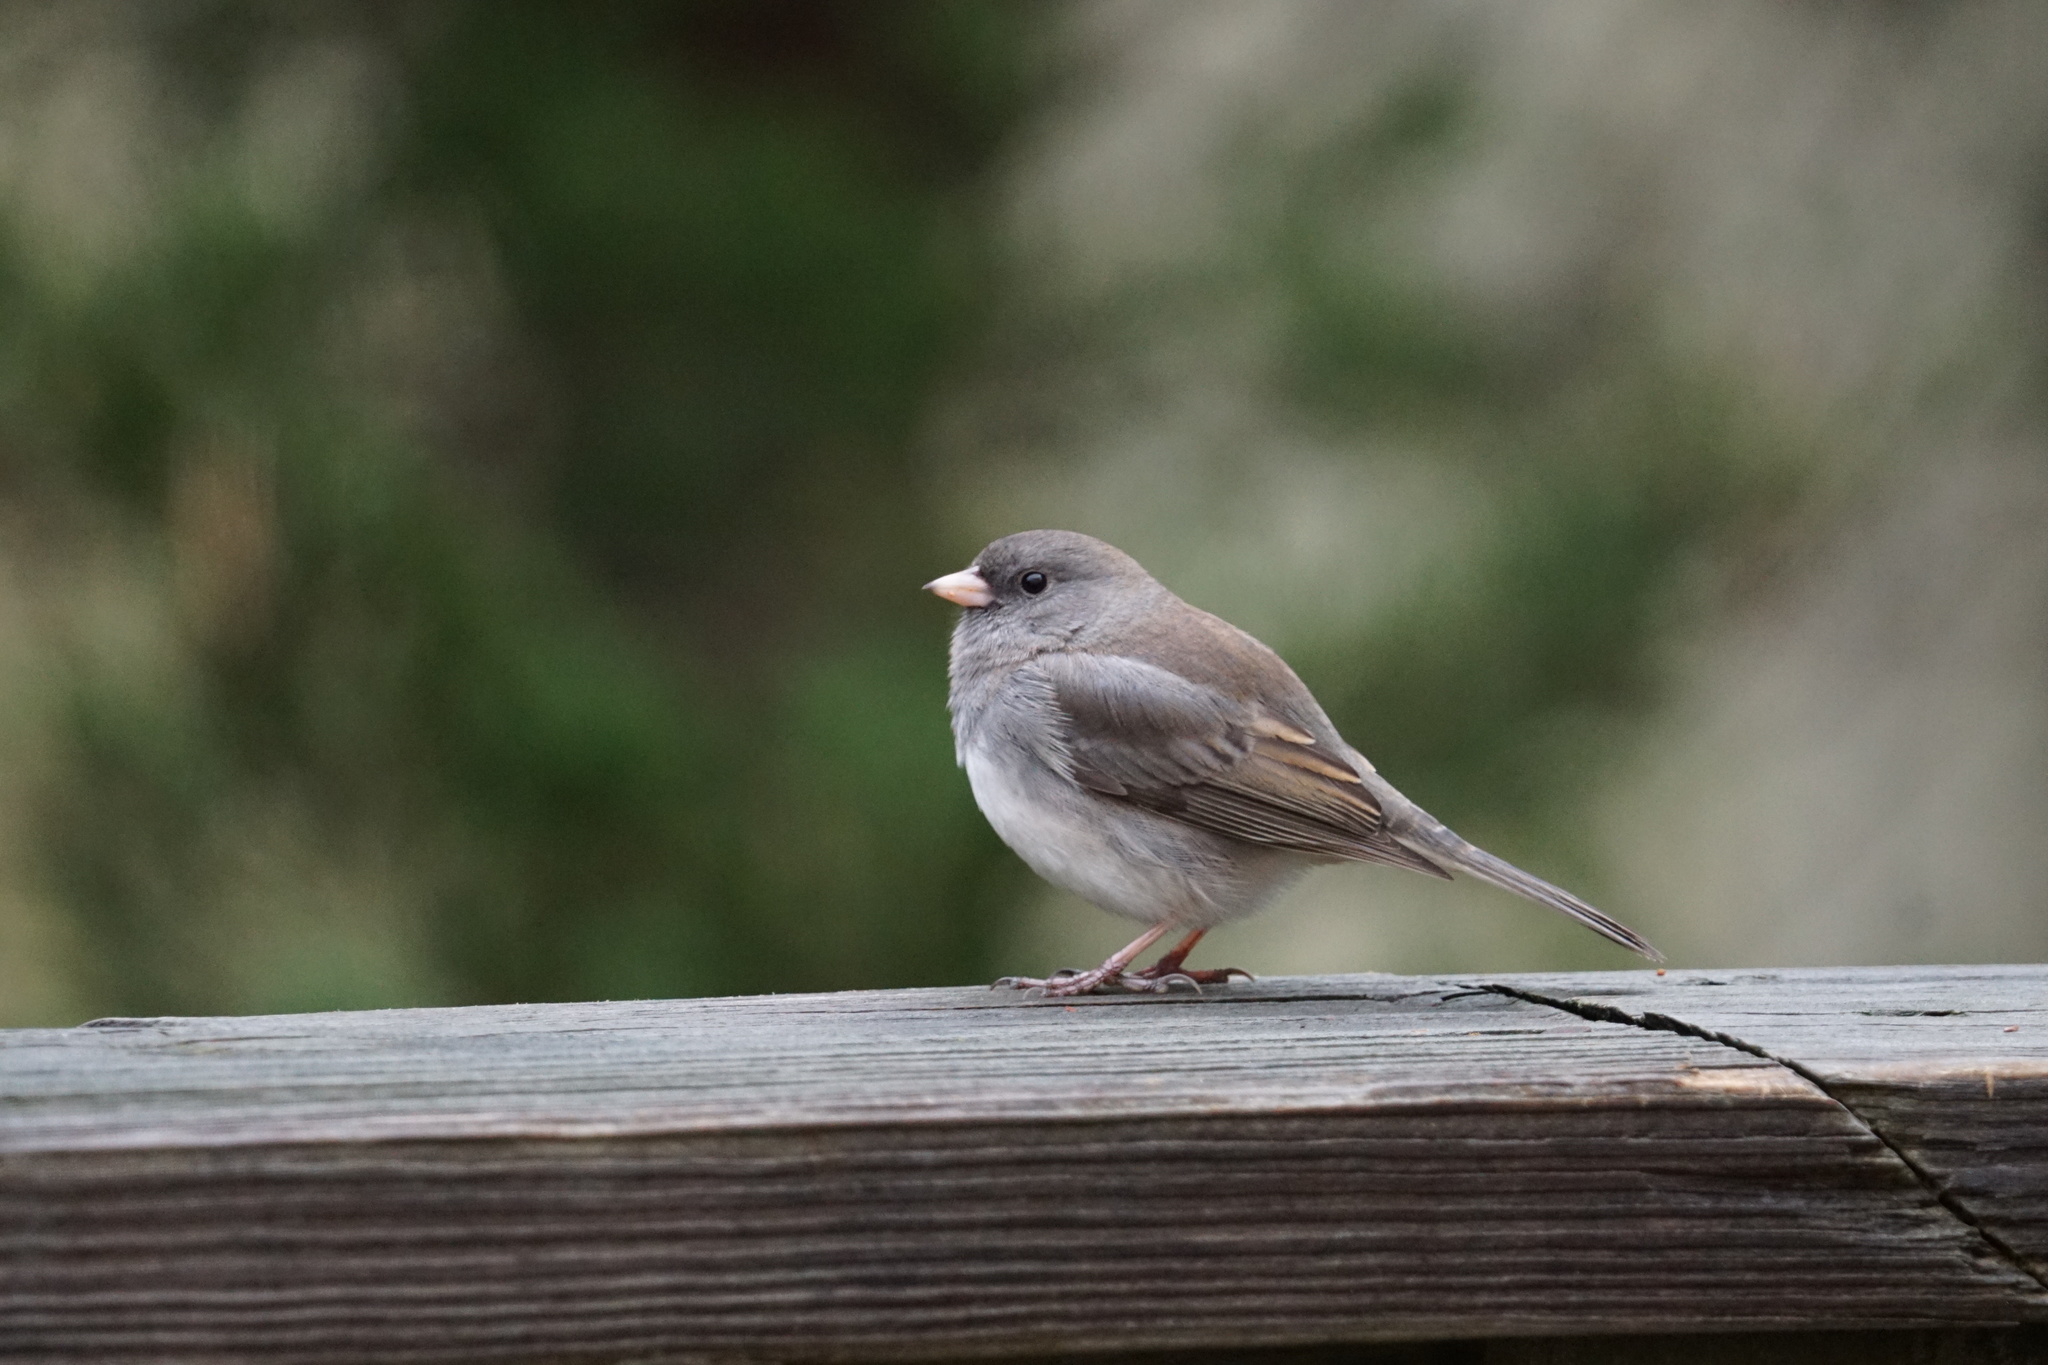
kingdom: Animalia
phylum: Chordata
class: Aves
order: Passeriformes
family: Passerellidae
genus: Junco
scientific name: Junco hyemalis
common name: Dark-eyed junco
